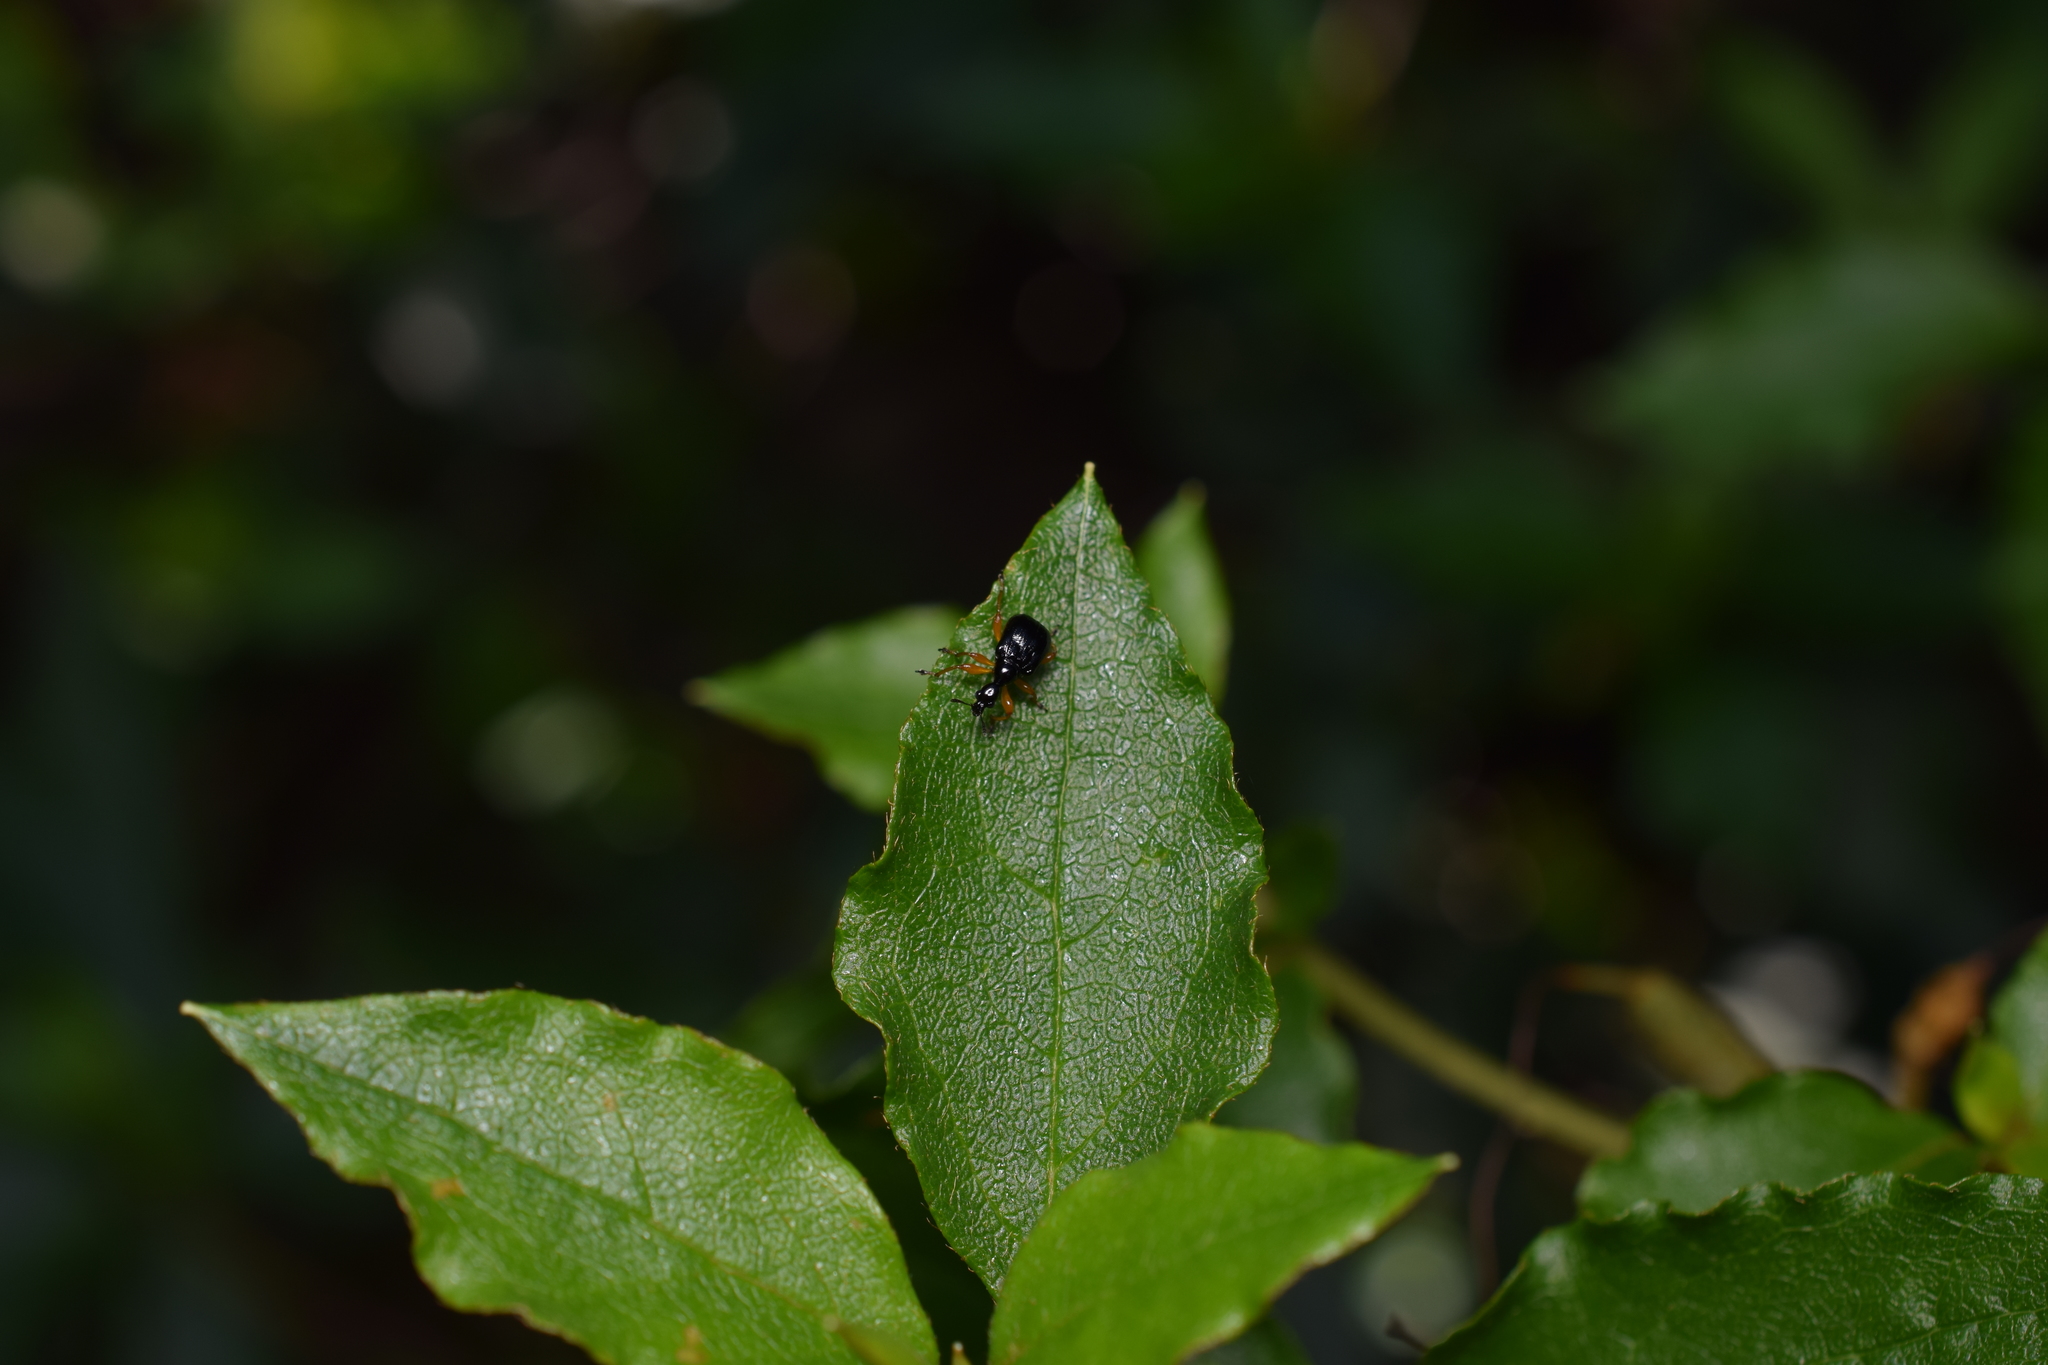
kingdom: Animalia
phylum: Arthropoda
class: Insecta
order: Coleoptera
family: Attelabidae
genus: Compsapoderus
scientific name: Compsapoderus erythrogaster
